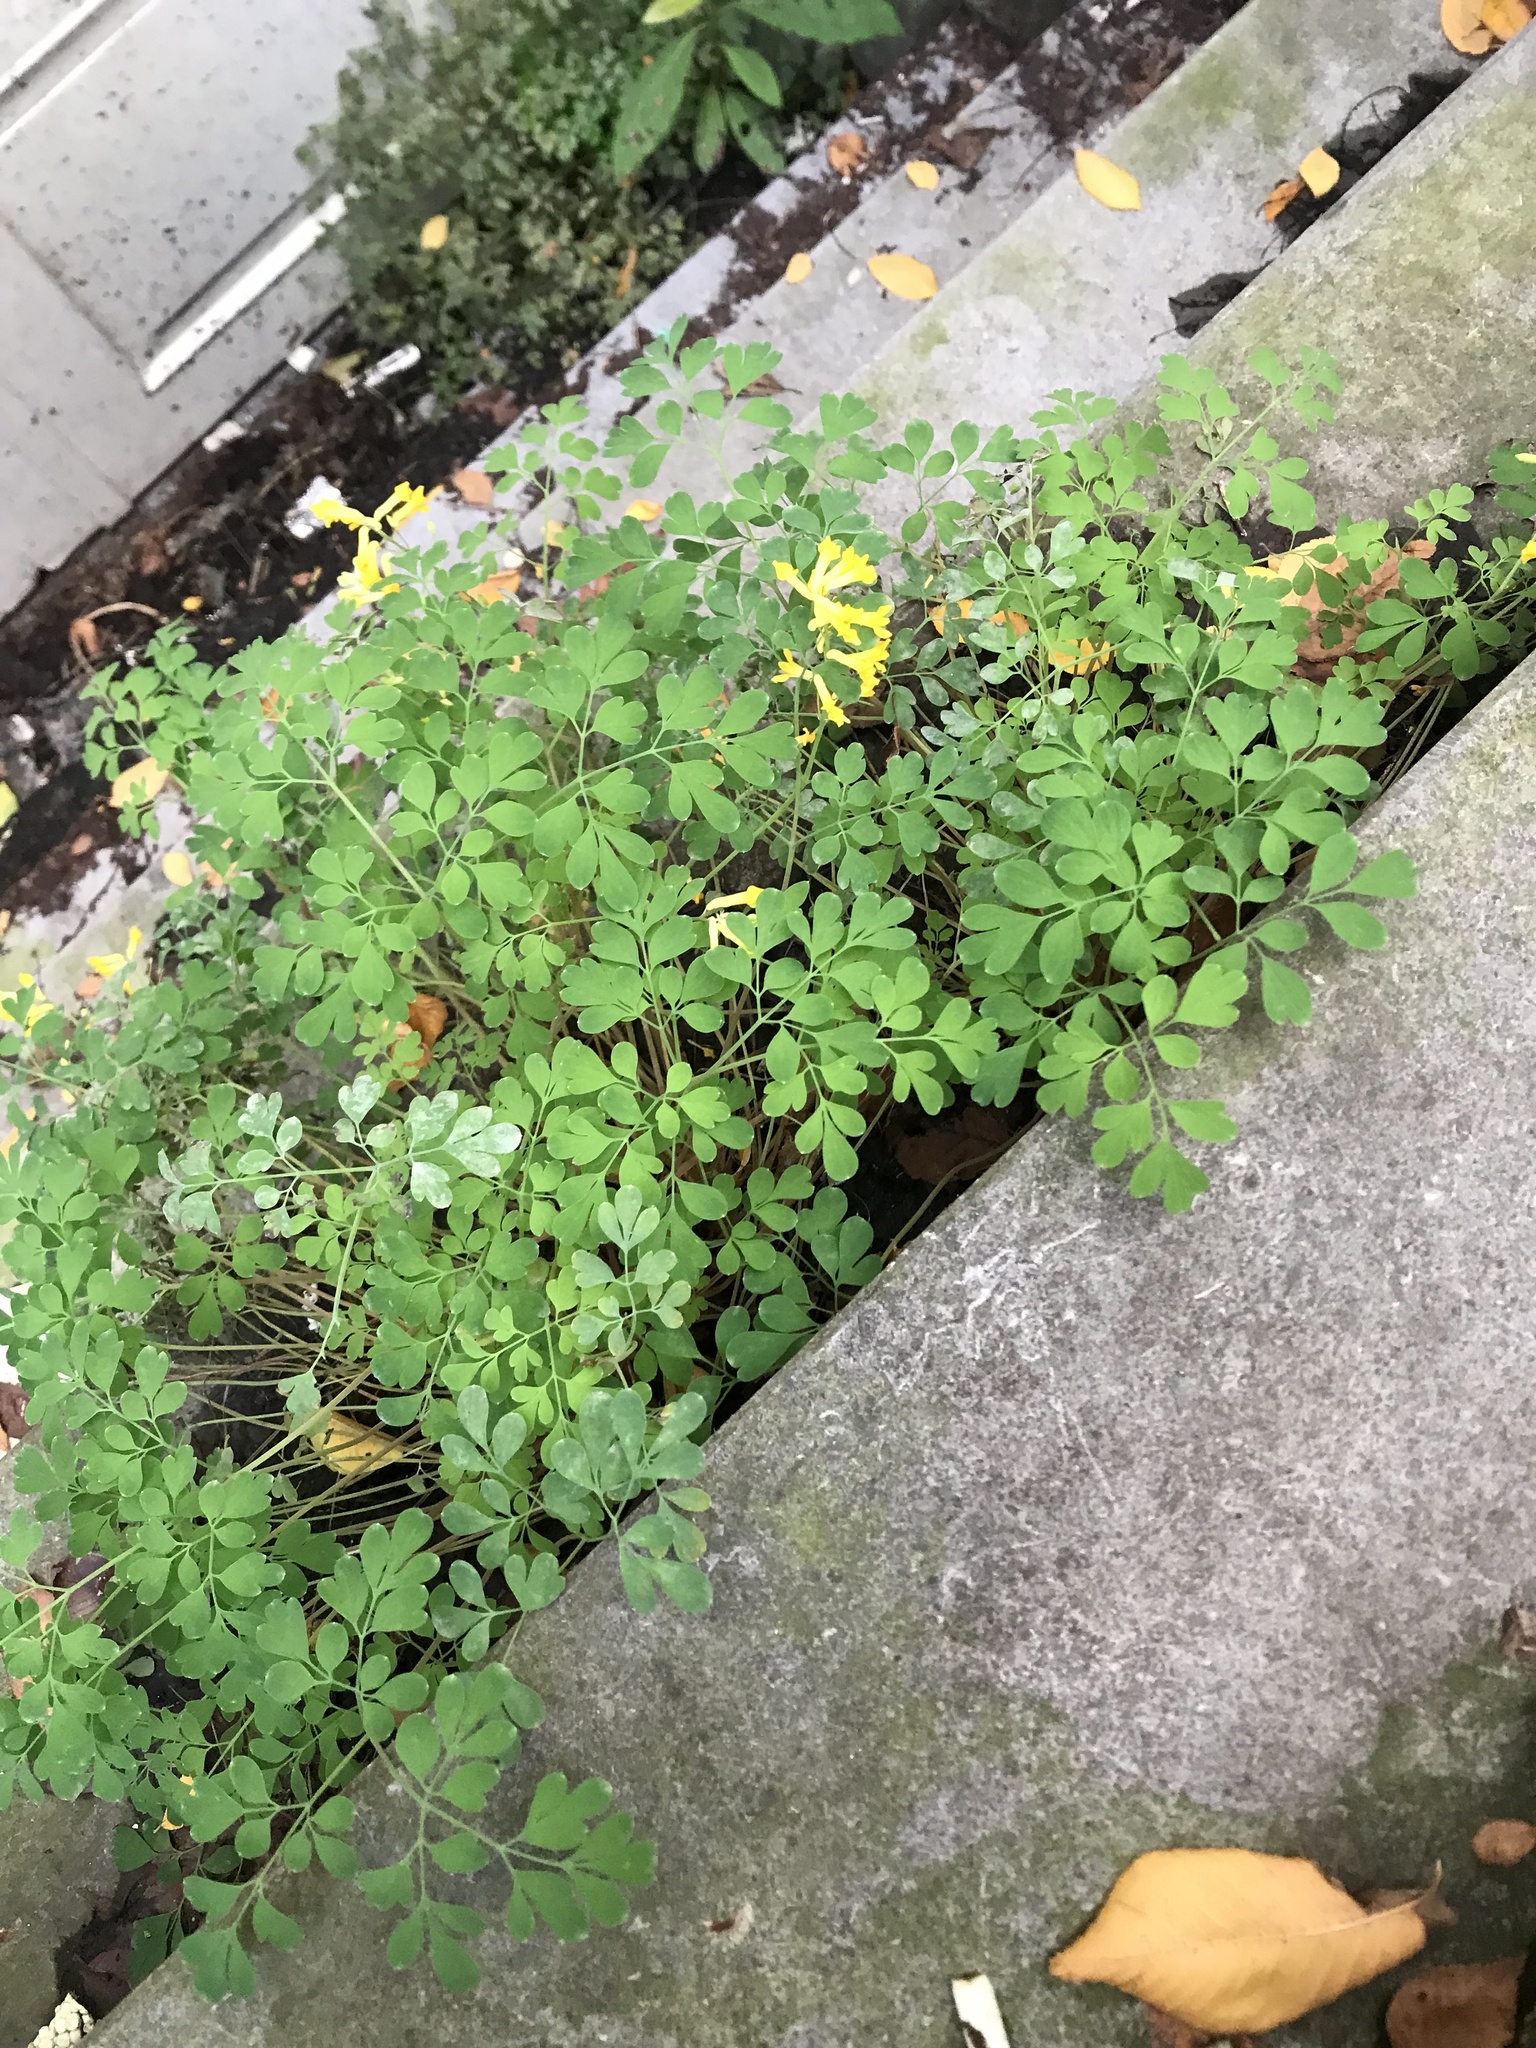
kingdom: Plantae
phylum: Tracheophyta
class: Magnoliopsida
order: Ranunculales
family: Papaveraceae
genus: Pseudofumaria
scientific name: Pseudofumaria lutea
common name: Yellow corydalis
